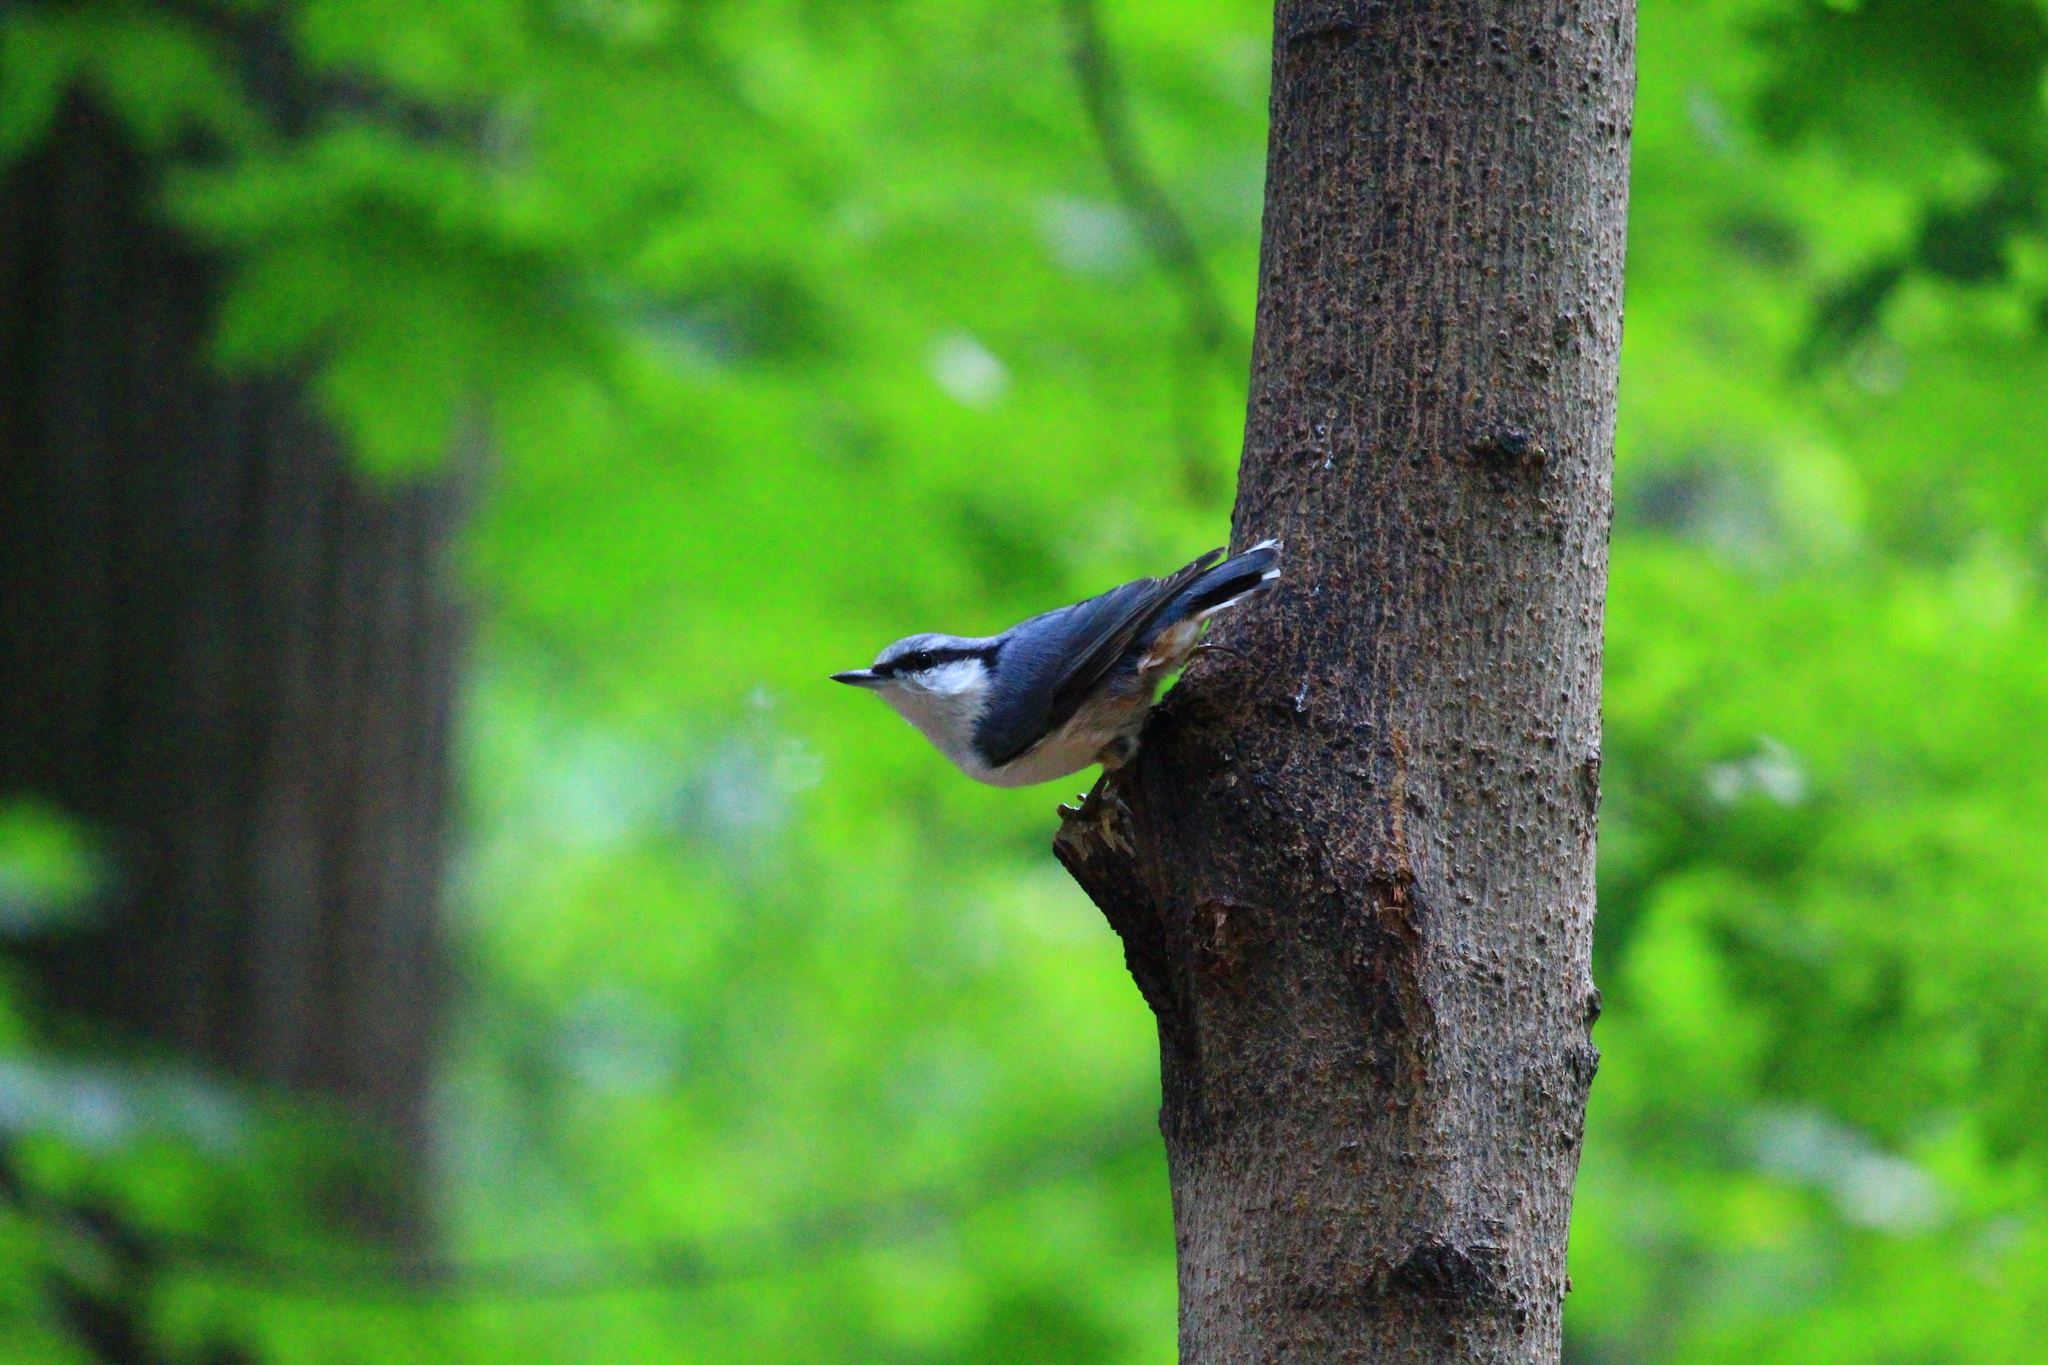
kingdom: Animalia
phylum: Chordata
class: Aves
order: Passeriformes
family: Sittidae
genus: Sitta
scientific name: Sitta europaea
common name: Eurasian nuthatch
